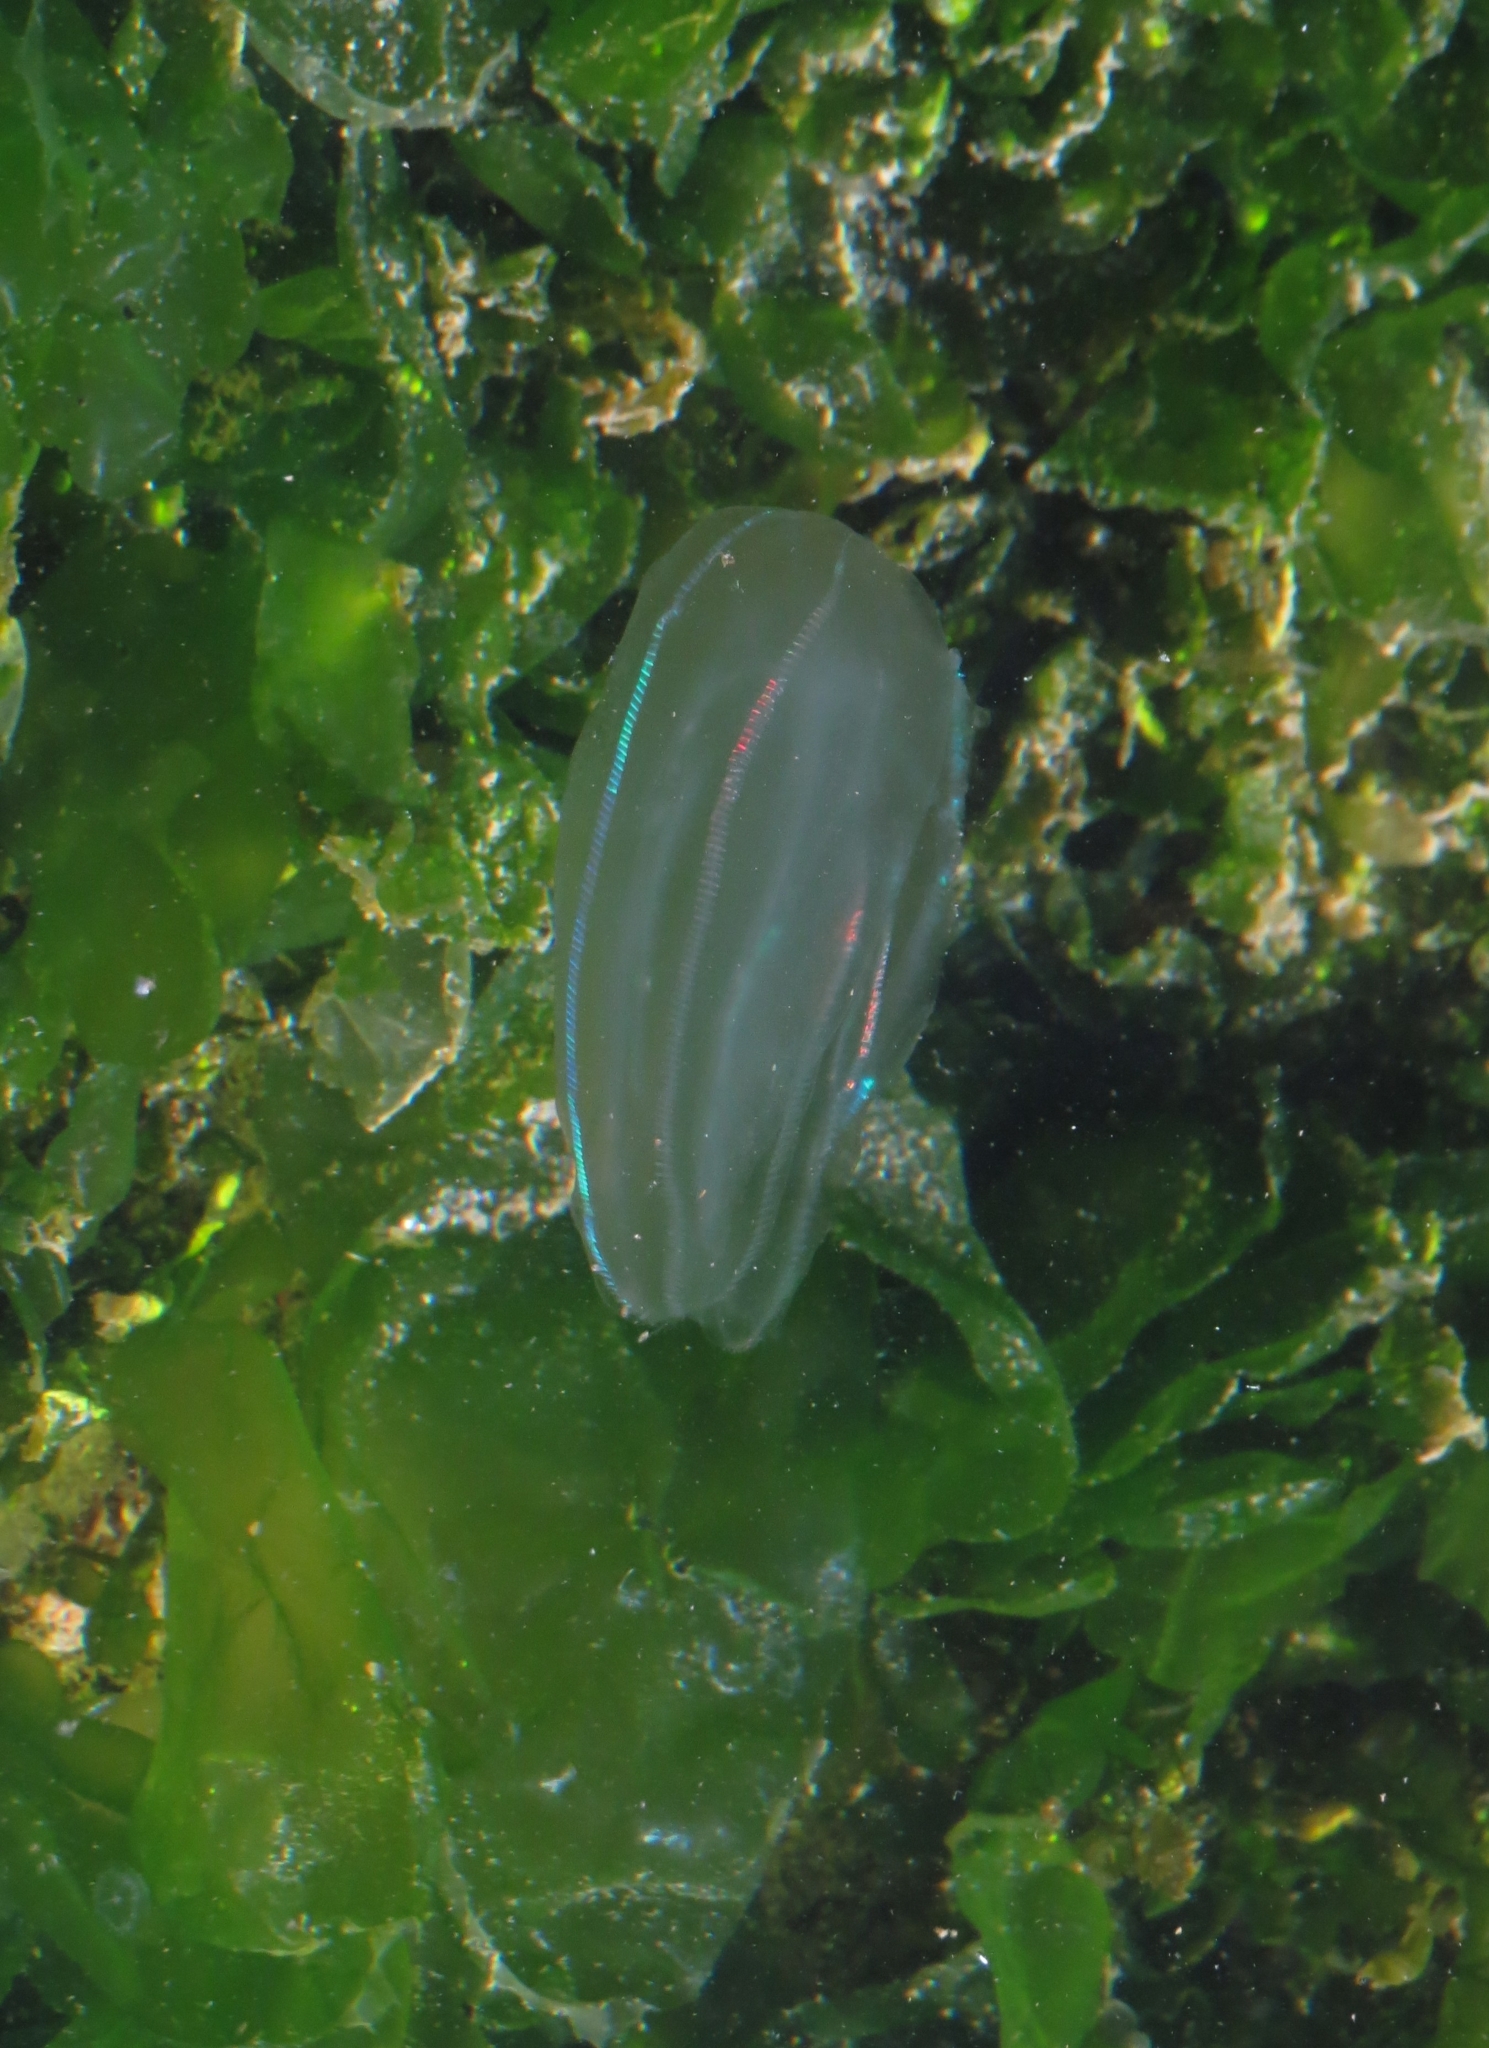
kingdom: Animalia
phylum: Ctenophora
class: Tentaculata
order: Lobata
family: Bolinopsidae
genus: Mnemiopsis
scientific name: Mnemiopsis leidyi
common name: American comb jelly
